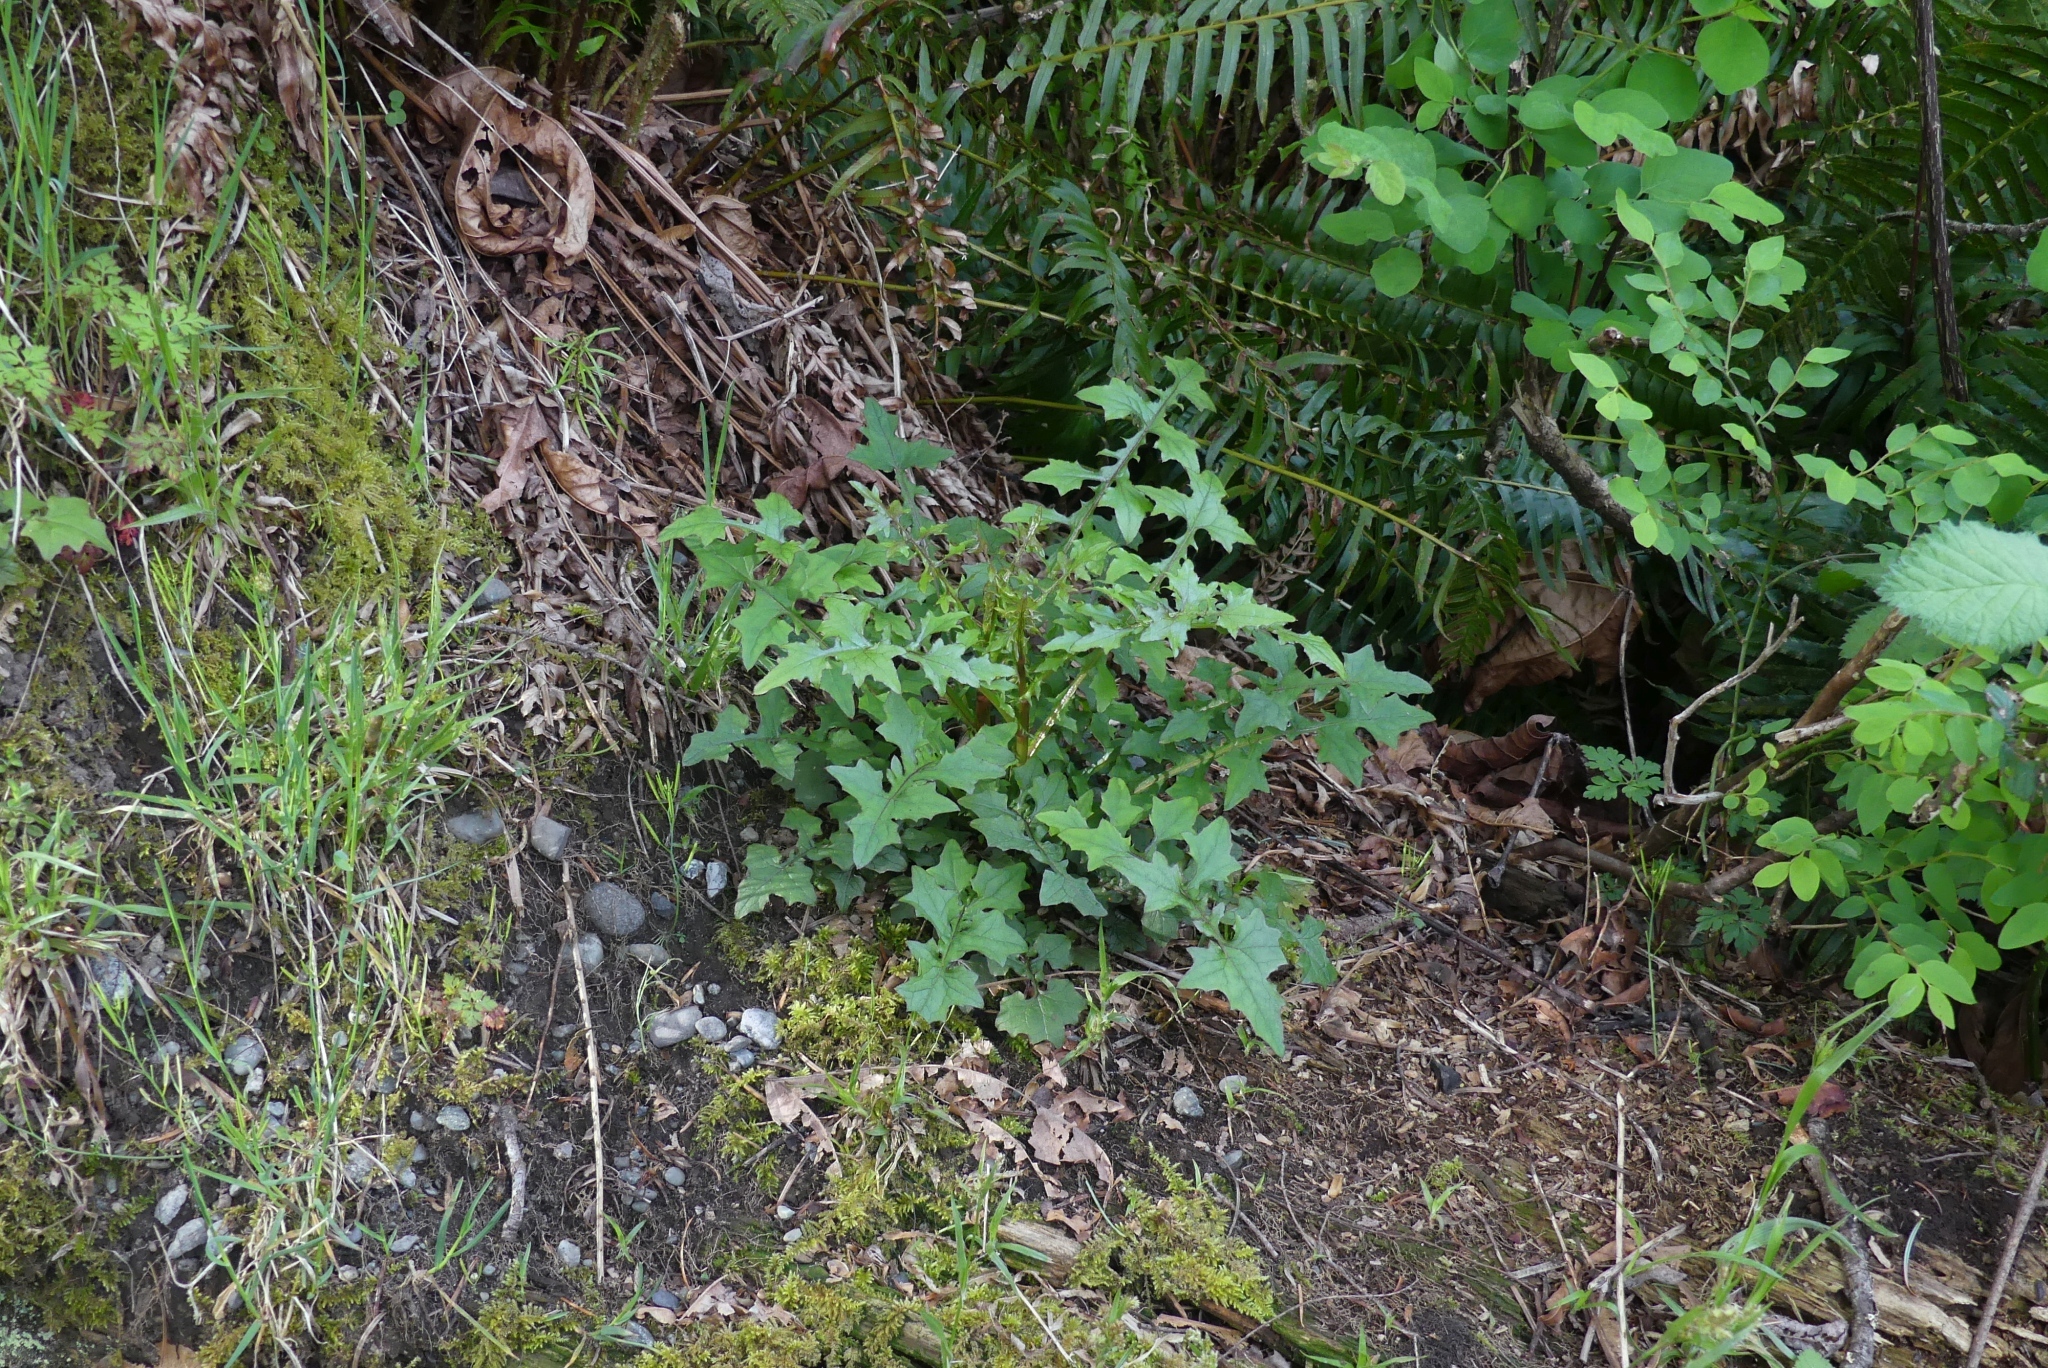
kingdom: Plantae
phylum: Tracheophyta
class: Magnoliopsida
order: Asterales
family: Asteraceae
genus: Mycelis
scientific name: Mycelis muralis
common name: Wall lettuce
